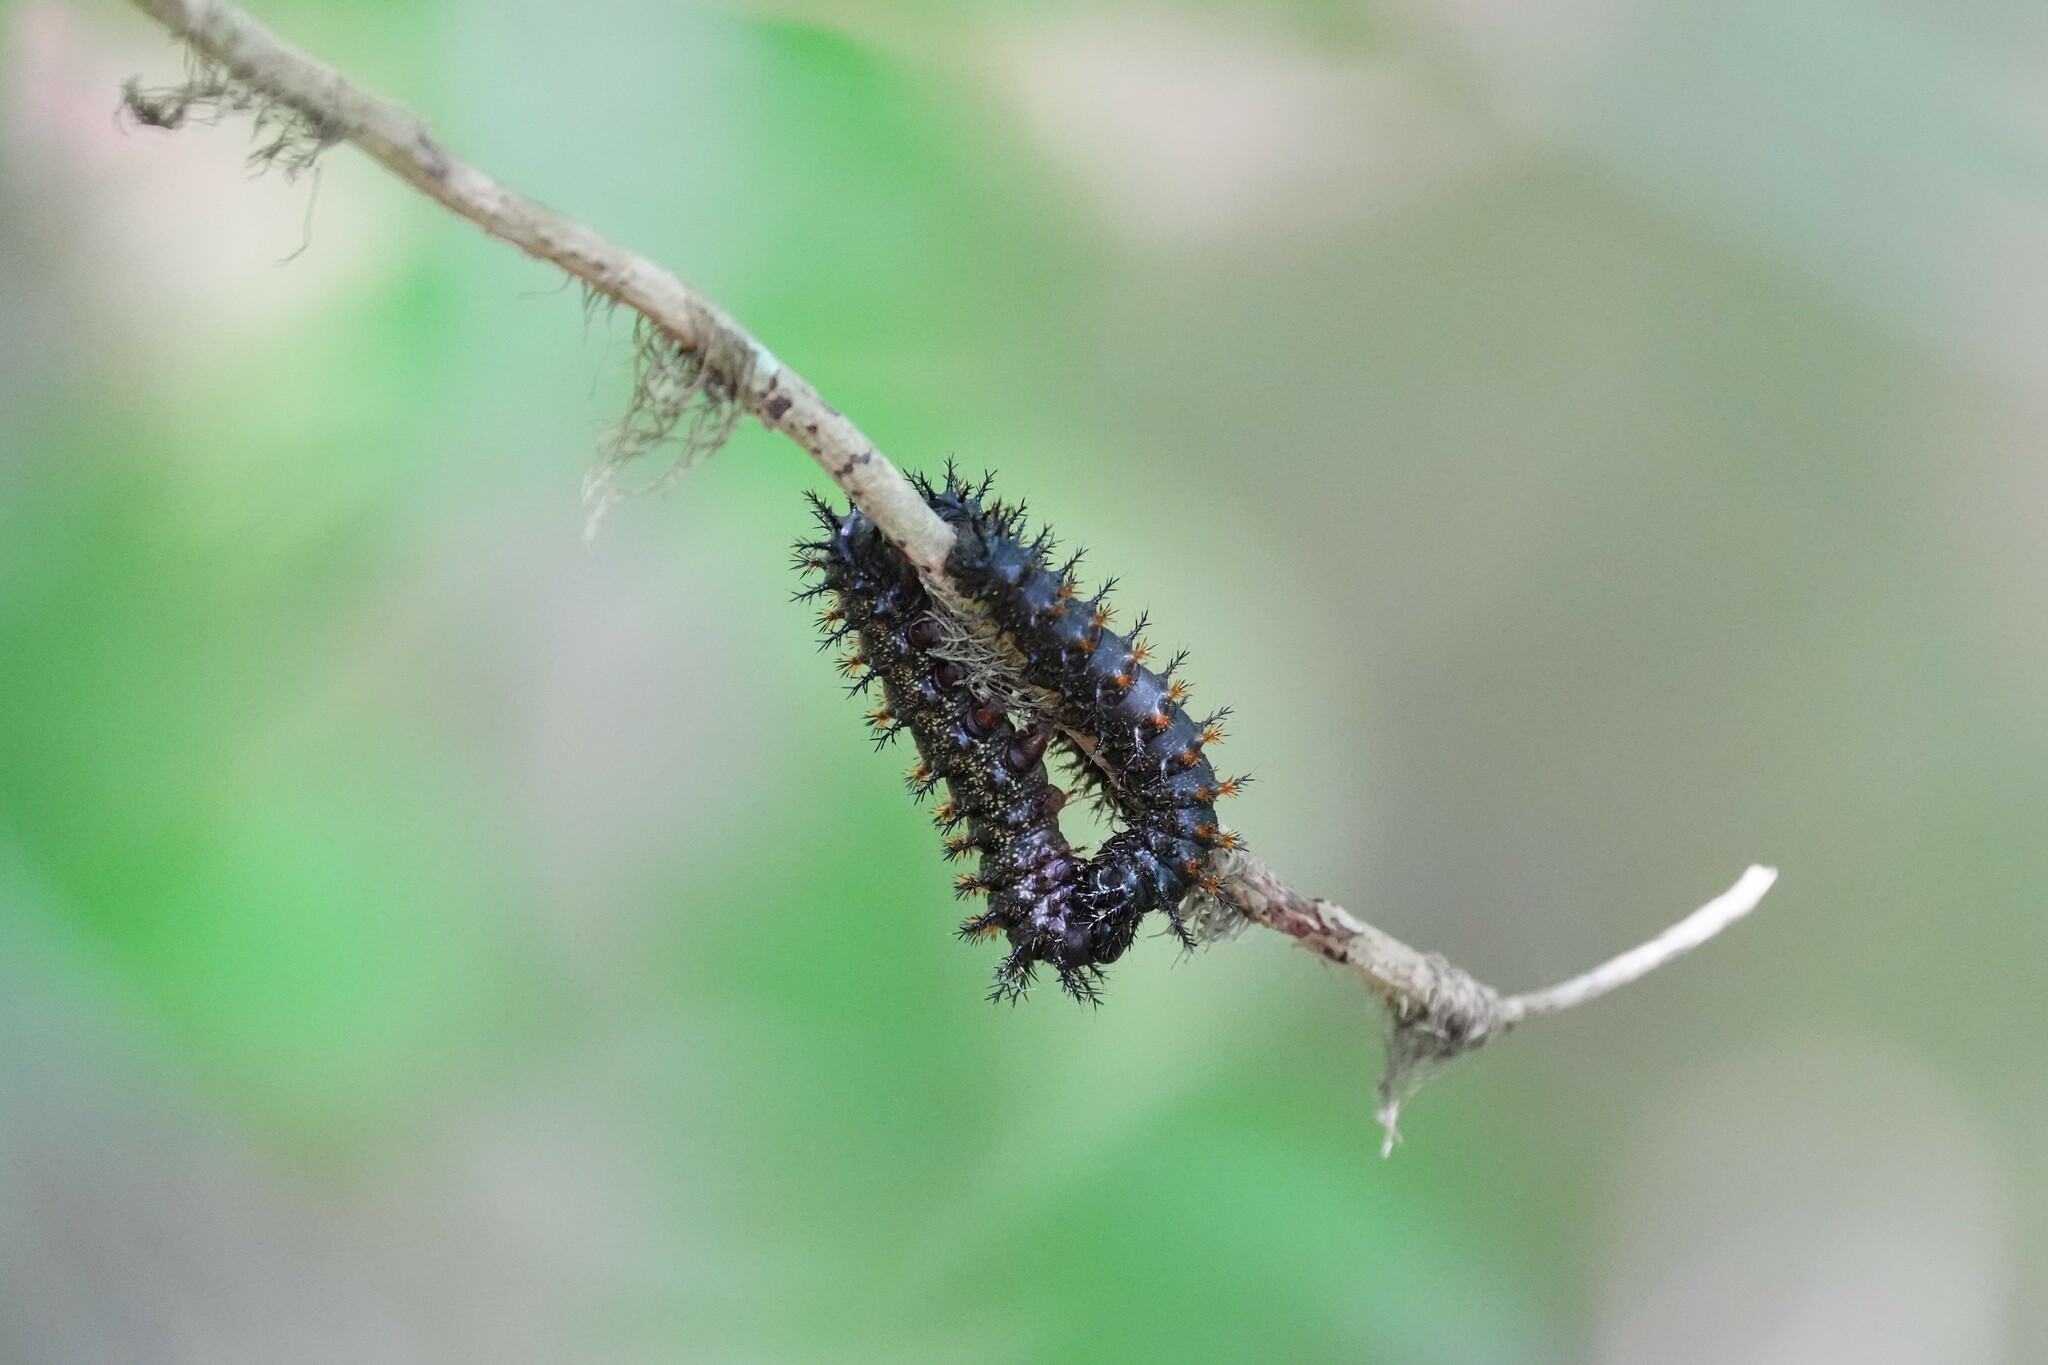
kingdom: Animalia
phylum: Arthropoda
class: Insecta
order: Lepidoptera
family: Saturniidae
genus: Hemileuca
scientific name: Hemileuca maia
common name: Eastern buckmoth
